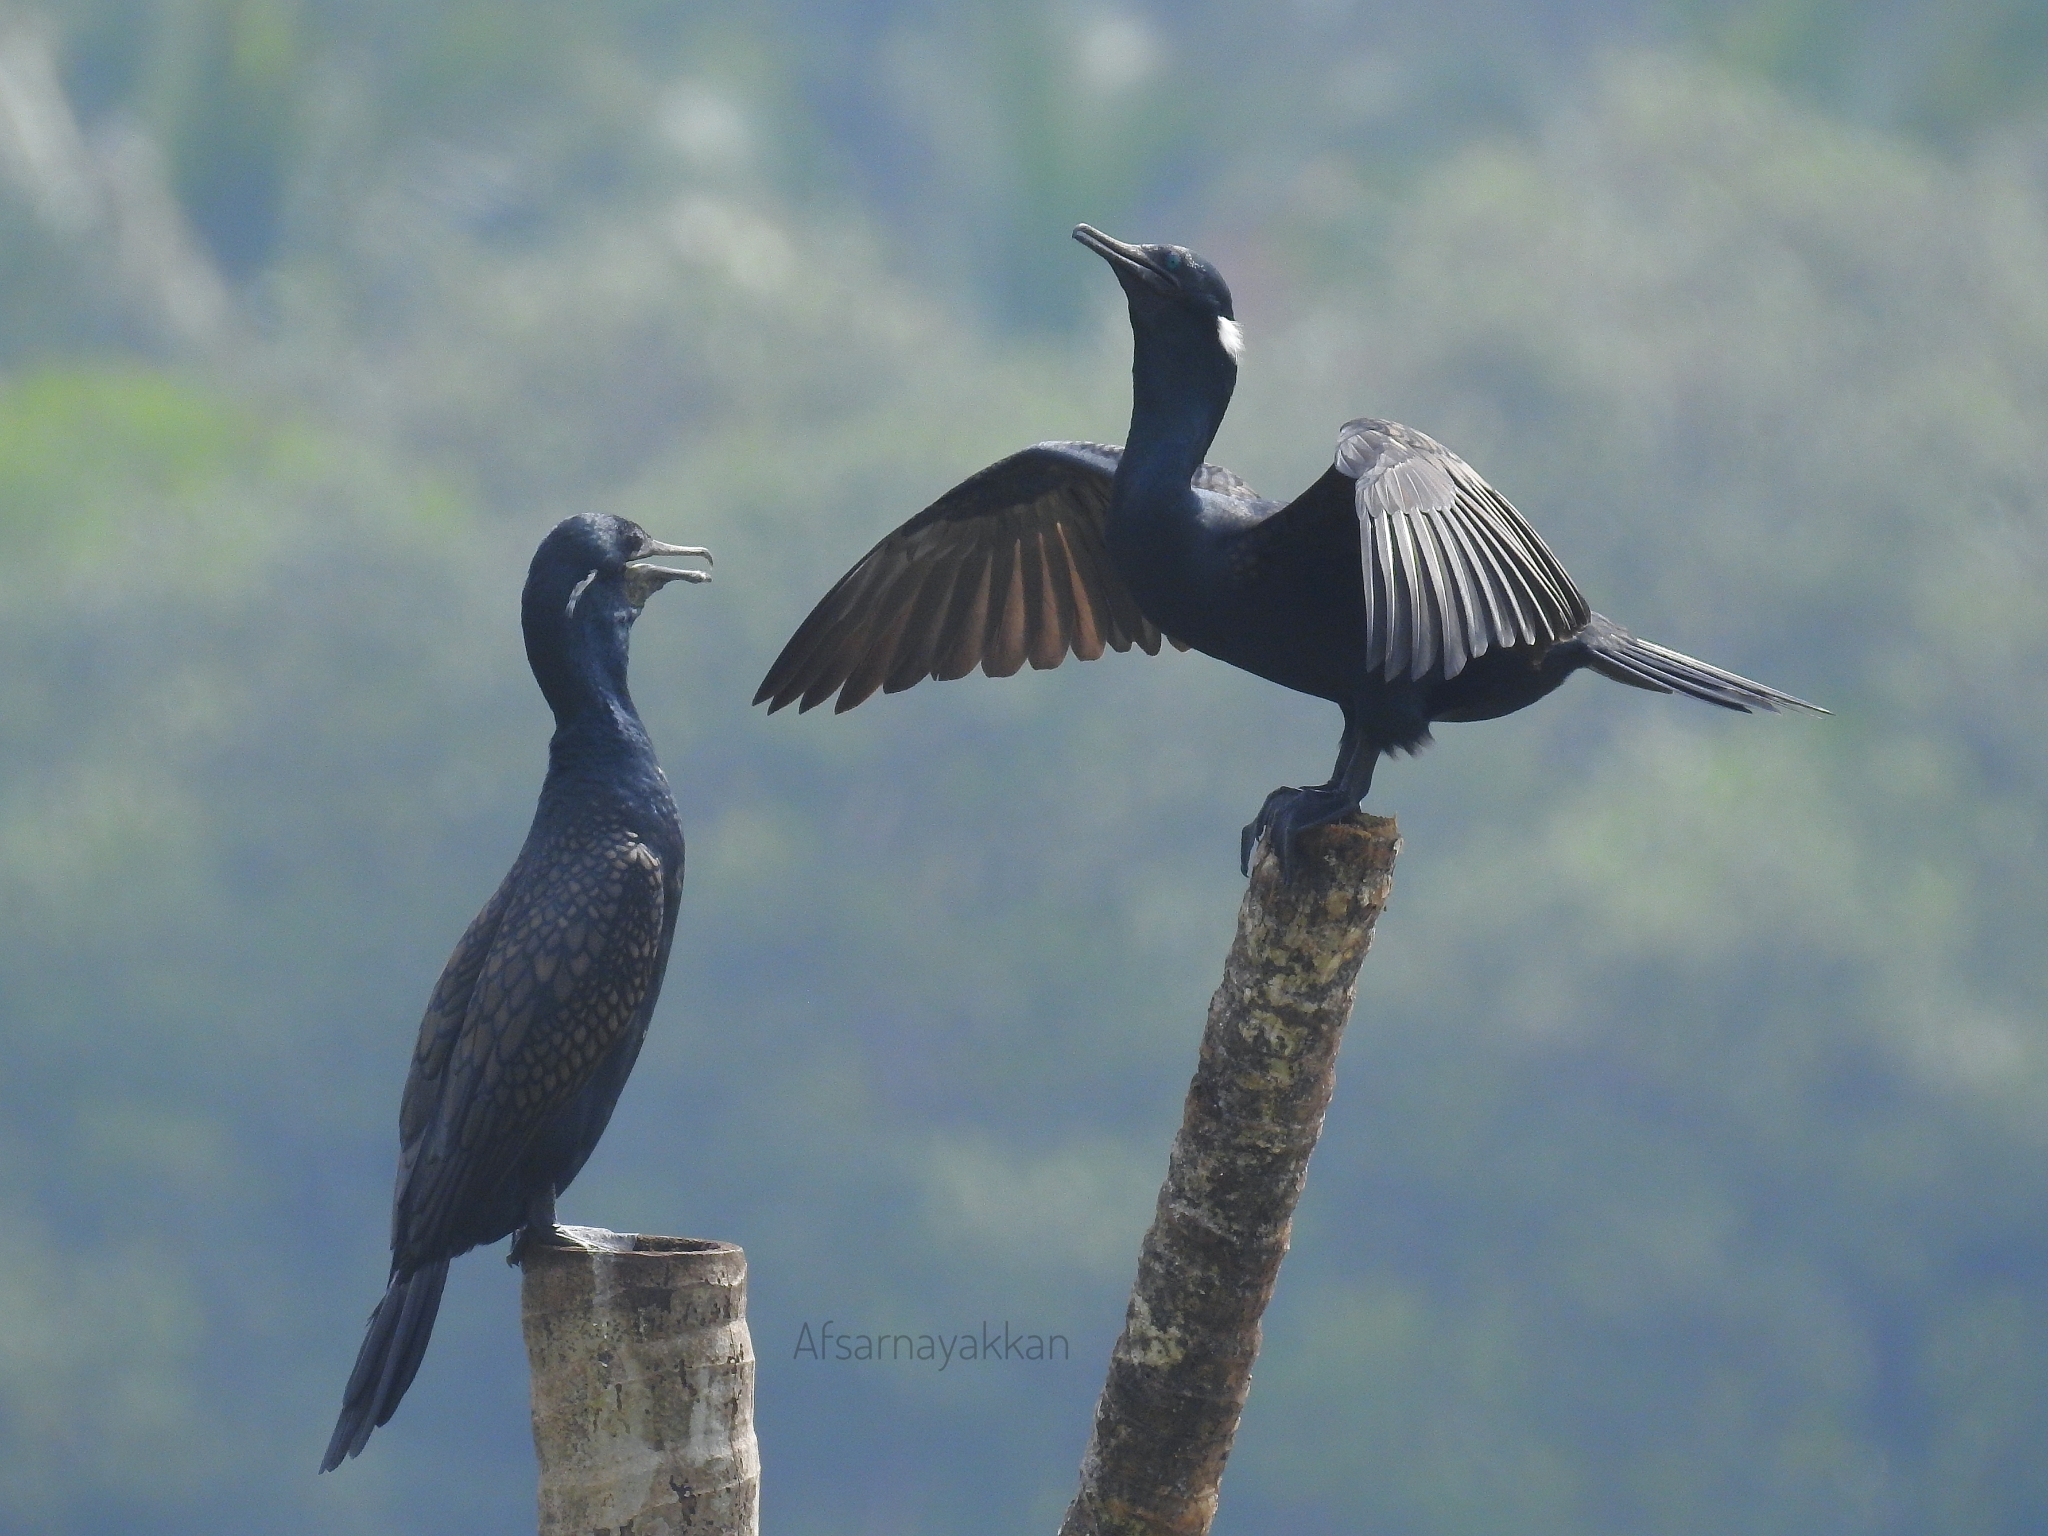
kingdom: Animalia
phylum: Chordata
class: Aves
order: Suliformes
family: Phalacrocoracidae
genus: Phalacrocorax
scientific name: Phalacrocorax fuscicollis
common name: Indian cormorant
